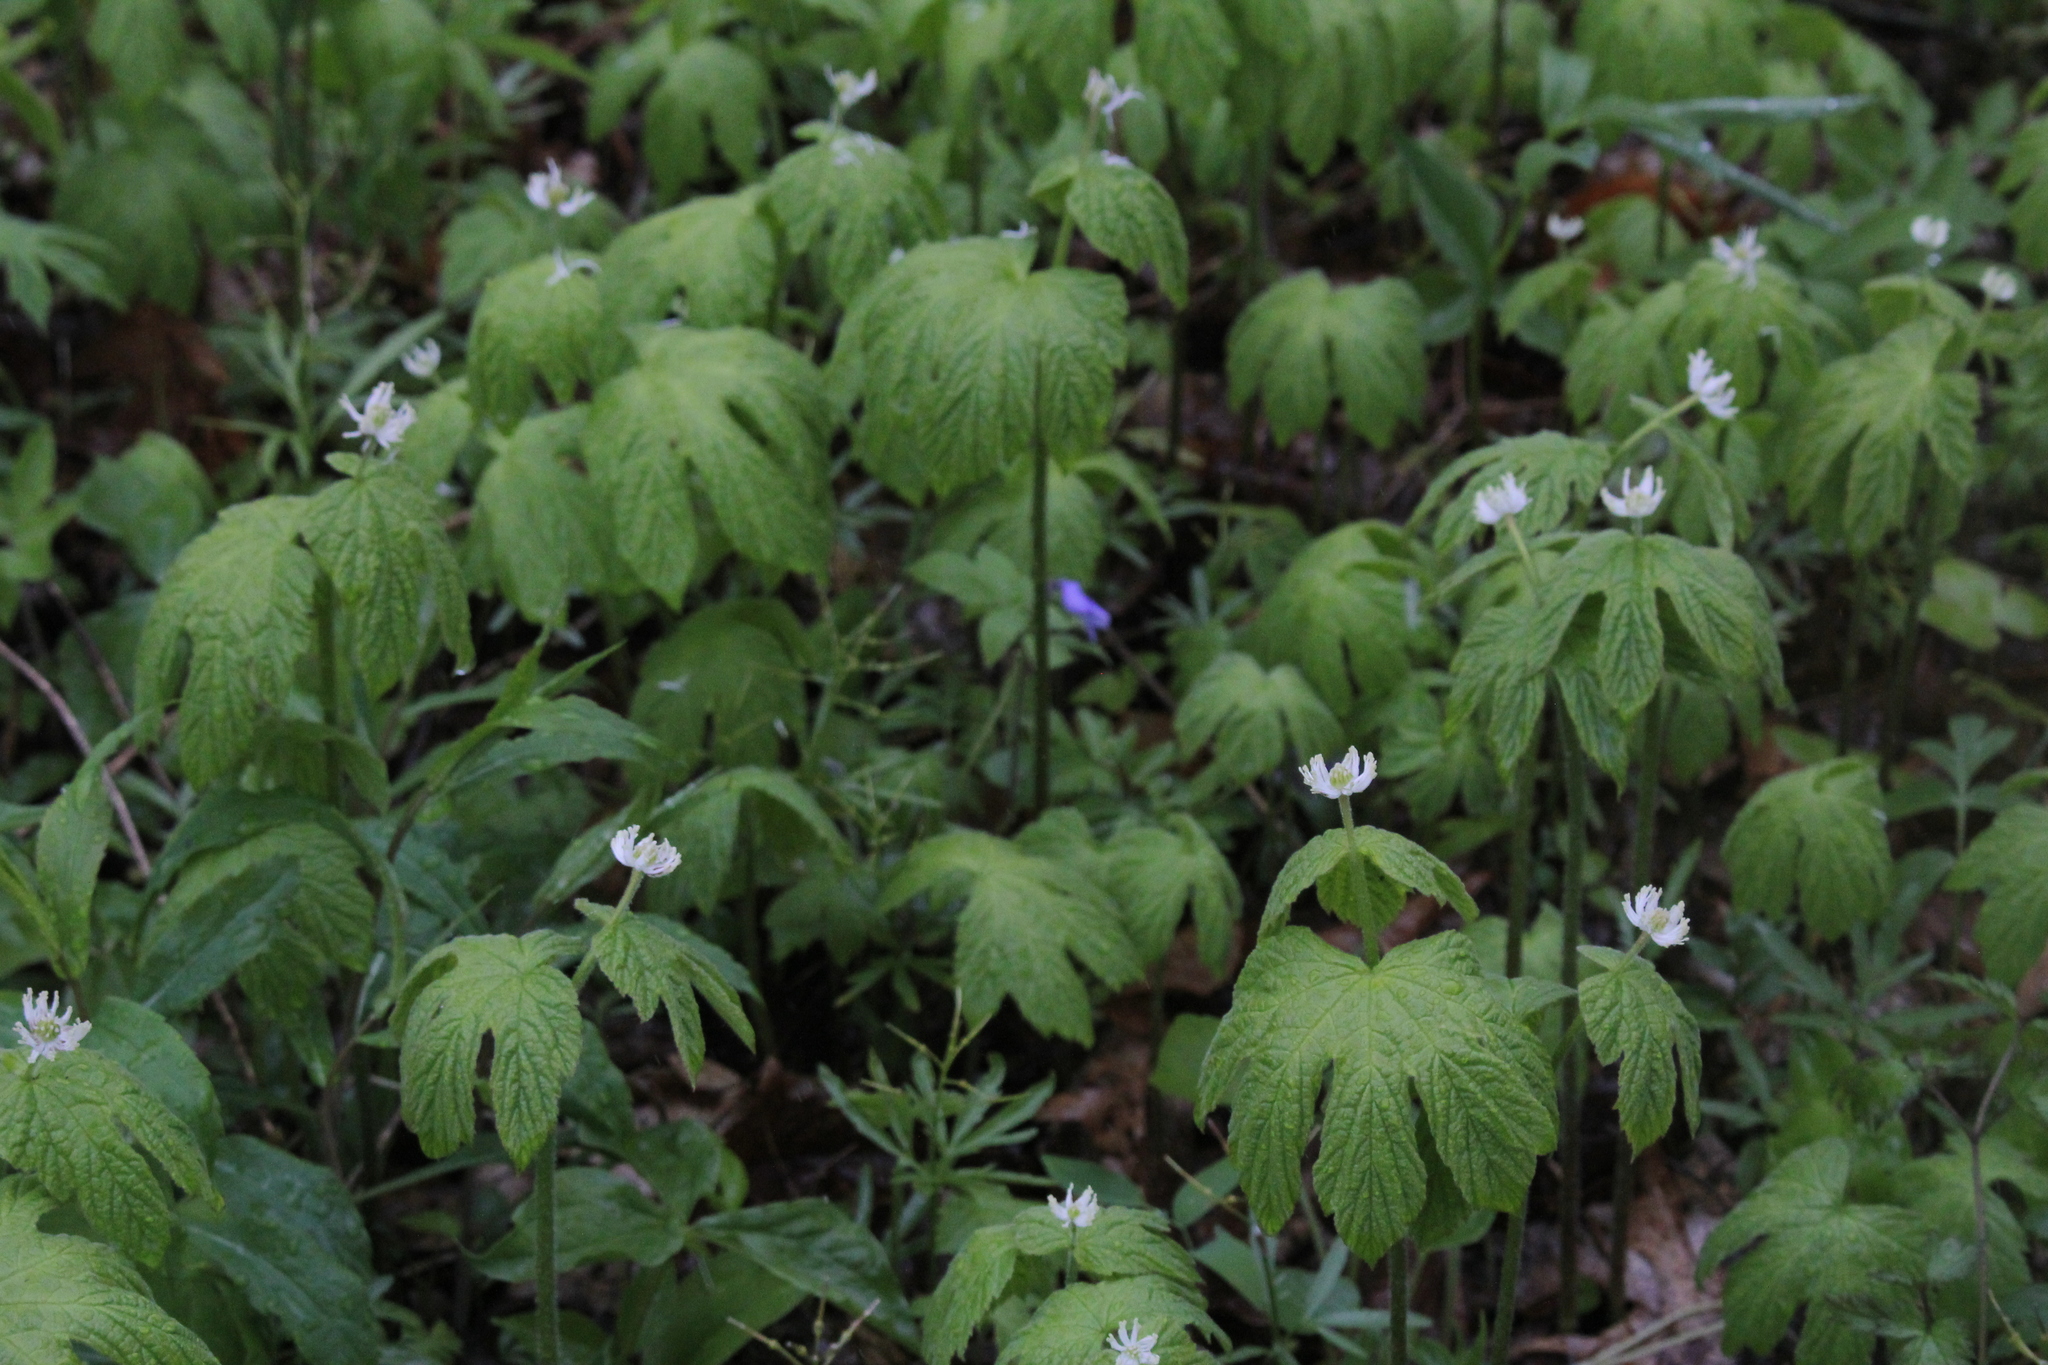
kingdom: Plantae
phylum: Tracheophyta
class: Magnoliopsida
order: Ranunculales
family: Ranunculaceae
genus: Hydrastis
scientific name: Hydrastis canadensis
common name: Goldenseal
